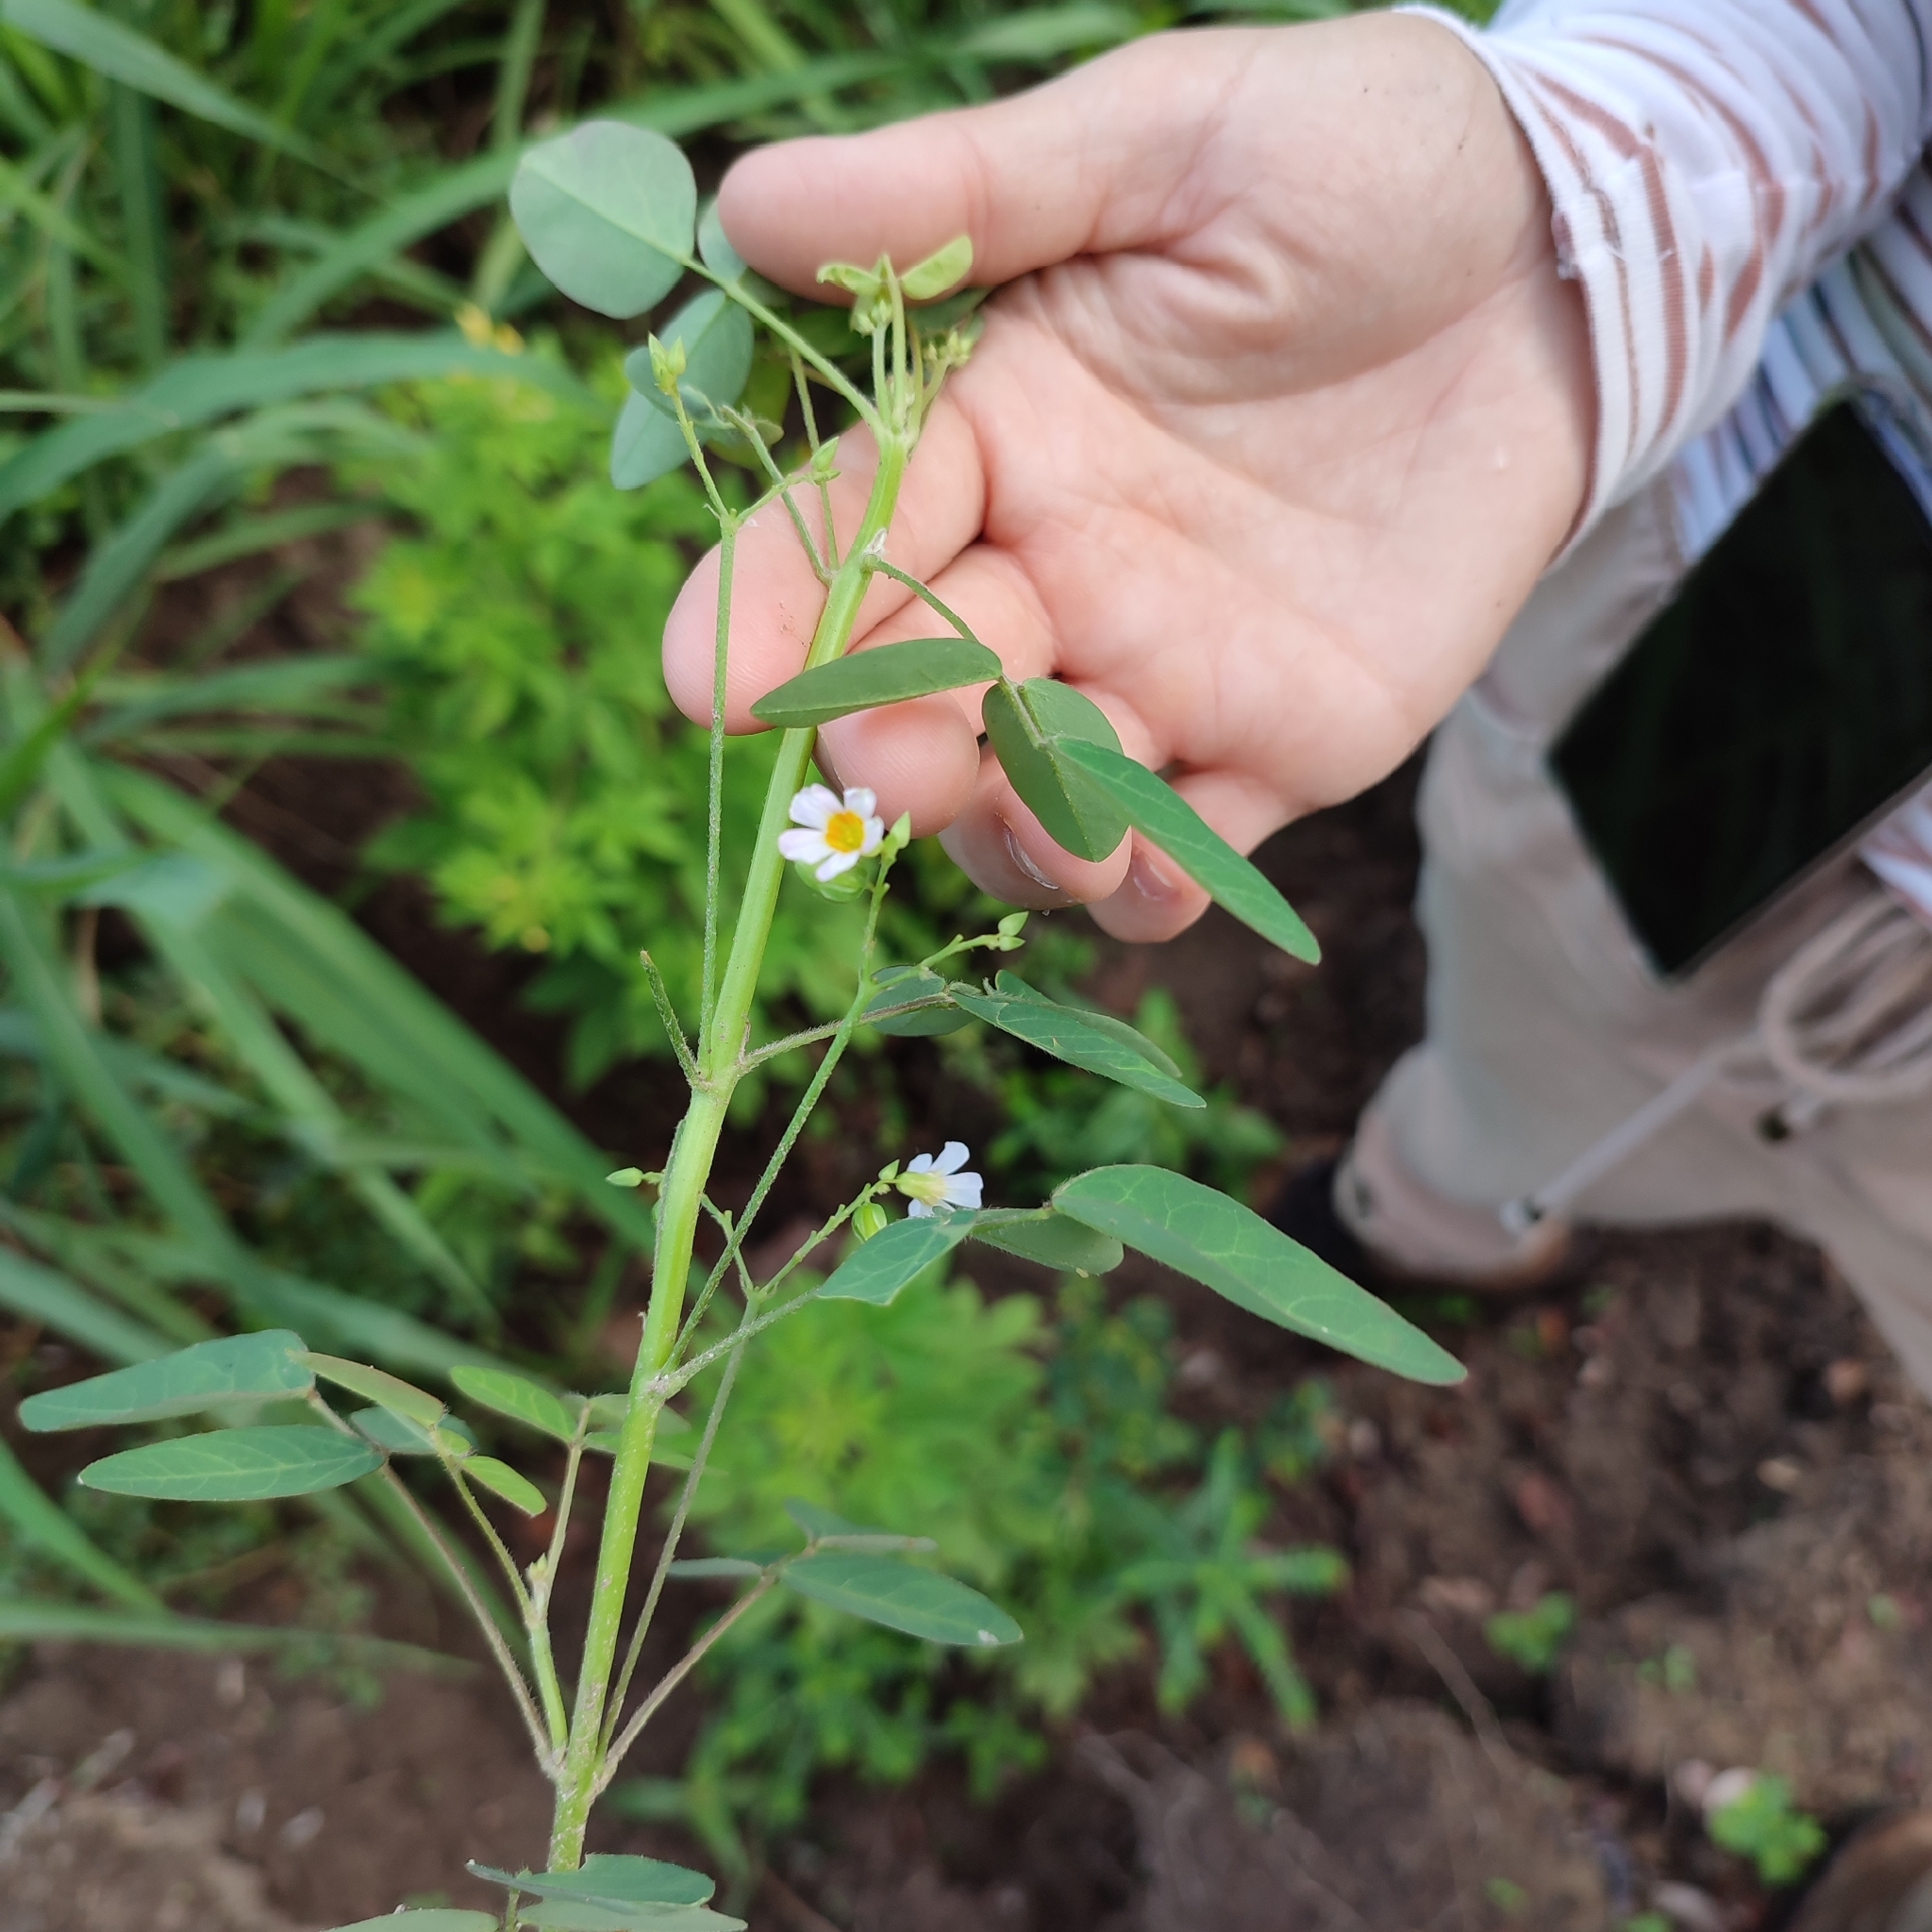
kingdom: Plantae
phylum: Tracheophyta
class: Magnoliopsida
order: Oxalidales
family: Oxalidaceae
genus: Oxalis
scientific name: Oxalis barrelieri
